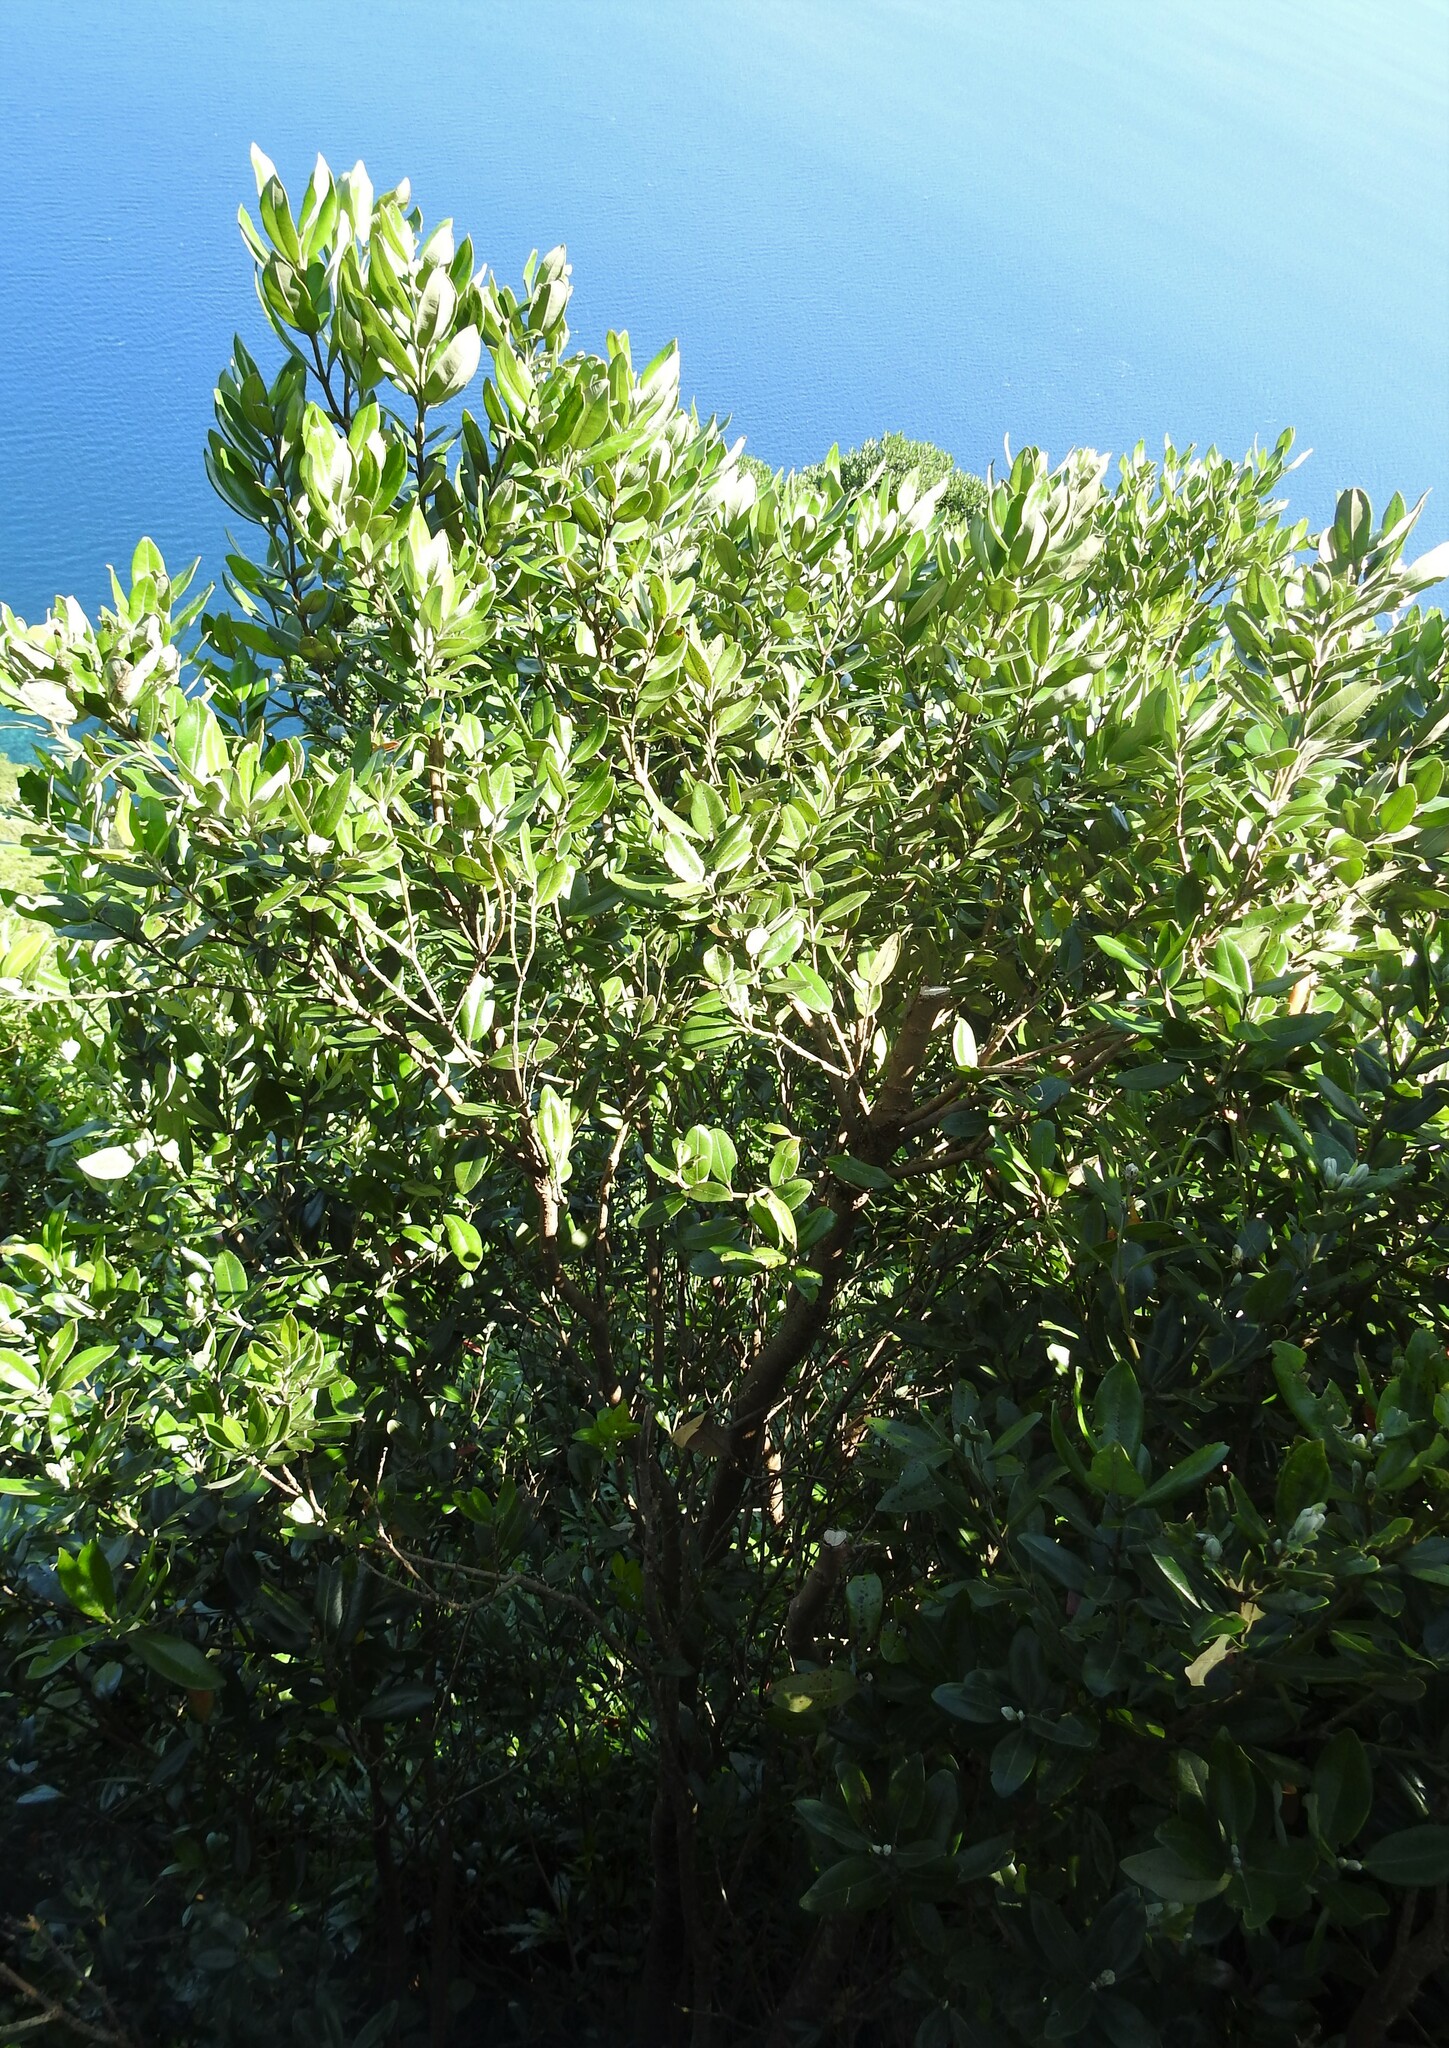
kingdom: Plantae
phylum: Tracheophyta
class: Magnoliopsida
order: Myrtales
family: Myrtaceae
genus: Metrosideros
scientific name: Metrosideros excelsa
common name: New zealand christmastree
